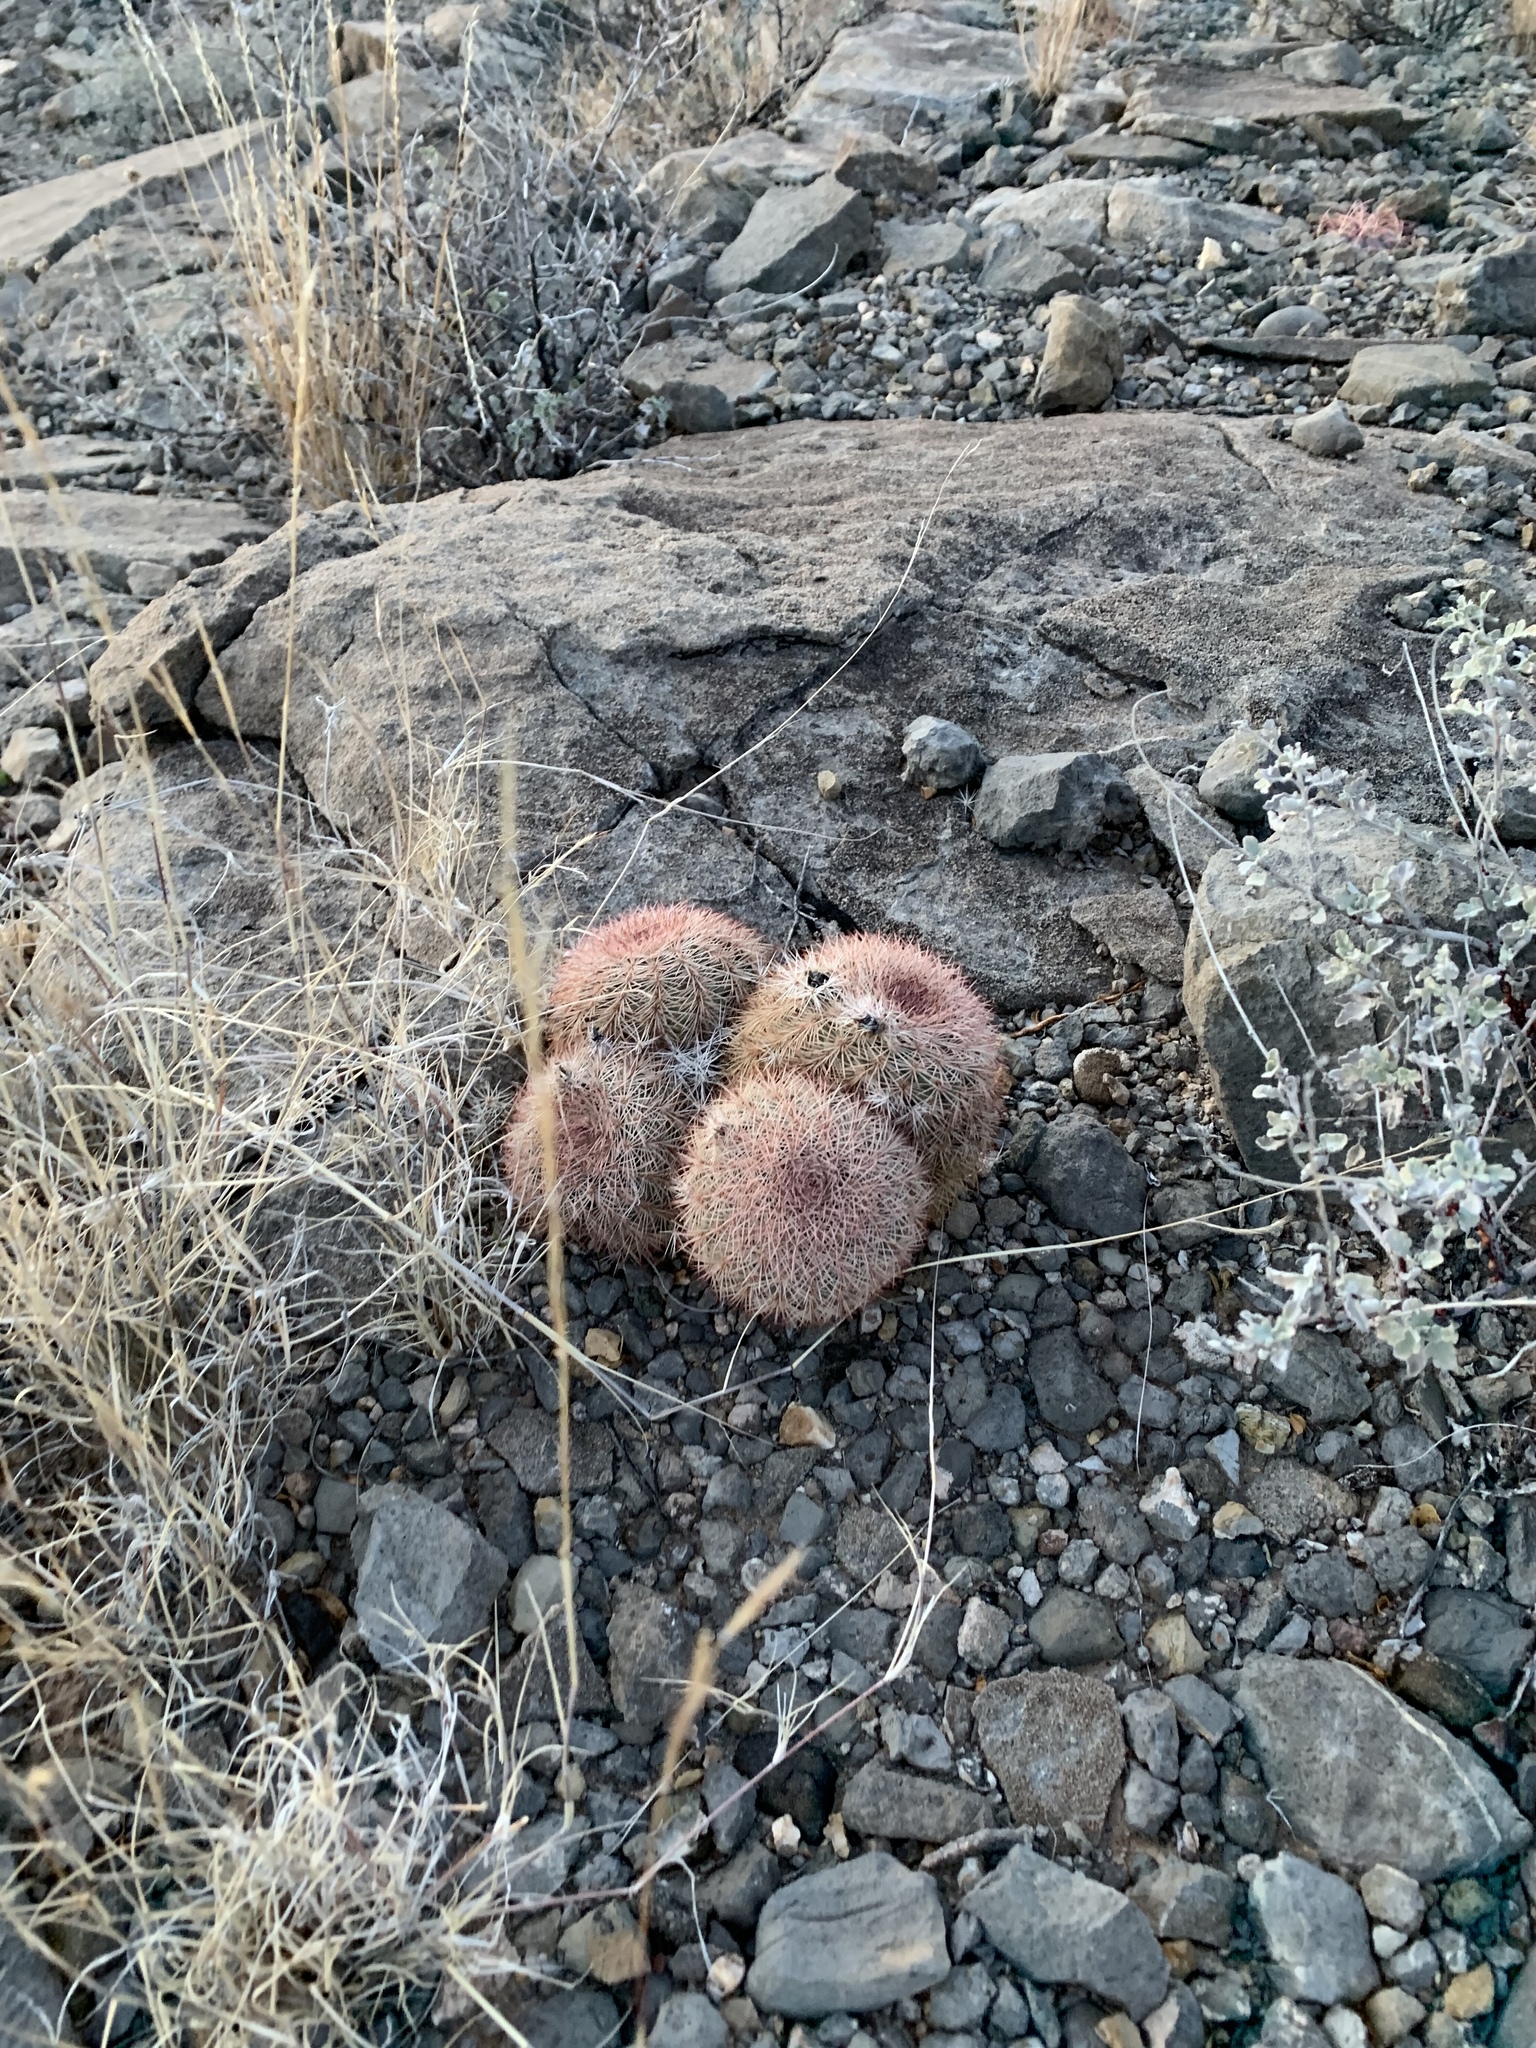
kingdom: Plantae
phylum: Tracheophyta
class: Magnoliopsida
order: Caryophyllales
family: Cactaceae
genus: Echinocereus
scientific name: Echinocereus dasyacanthus
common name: Spiny hedgehog cactus
